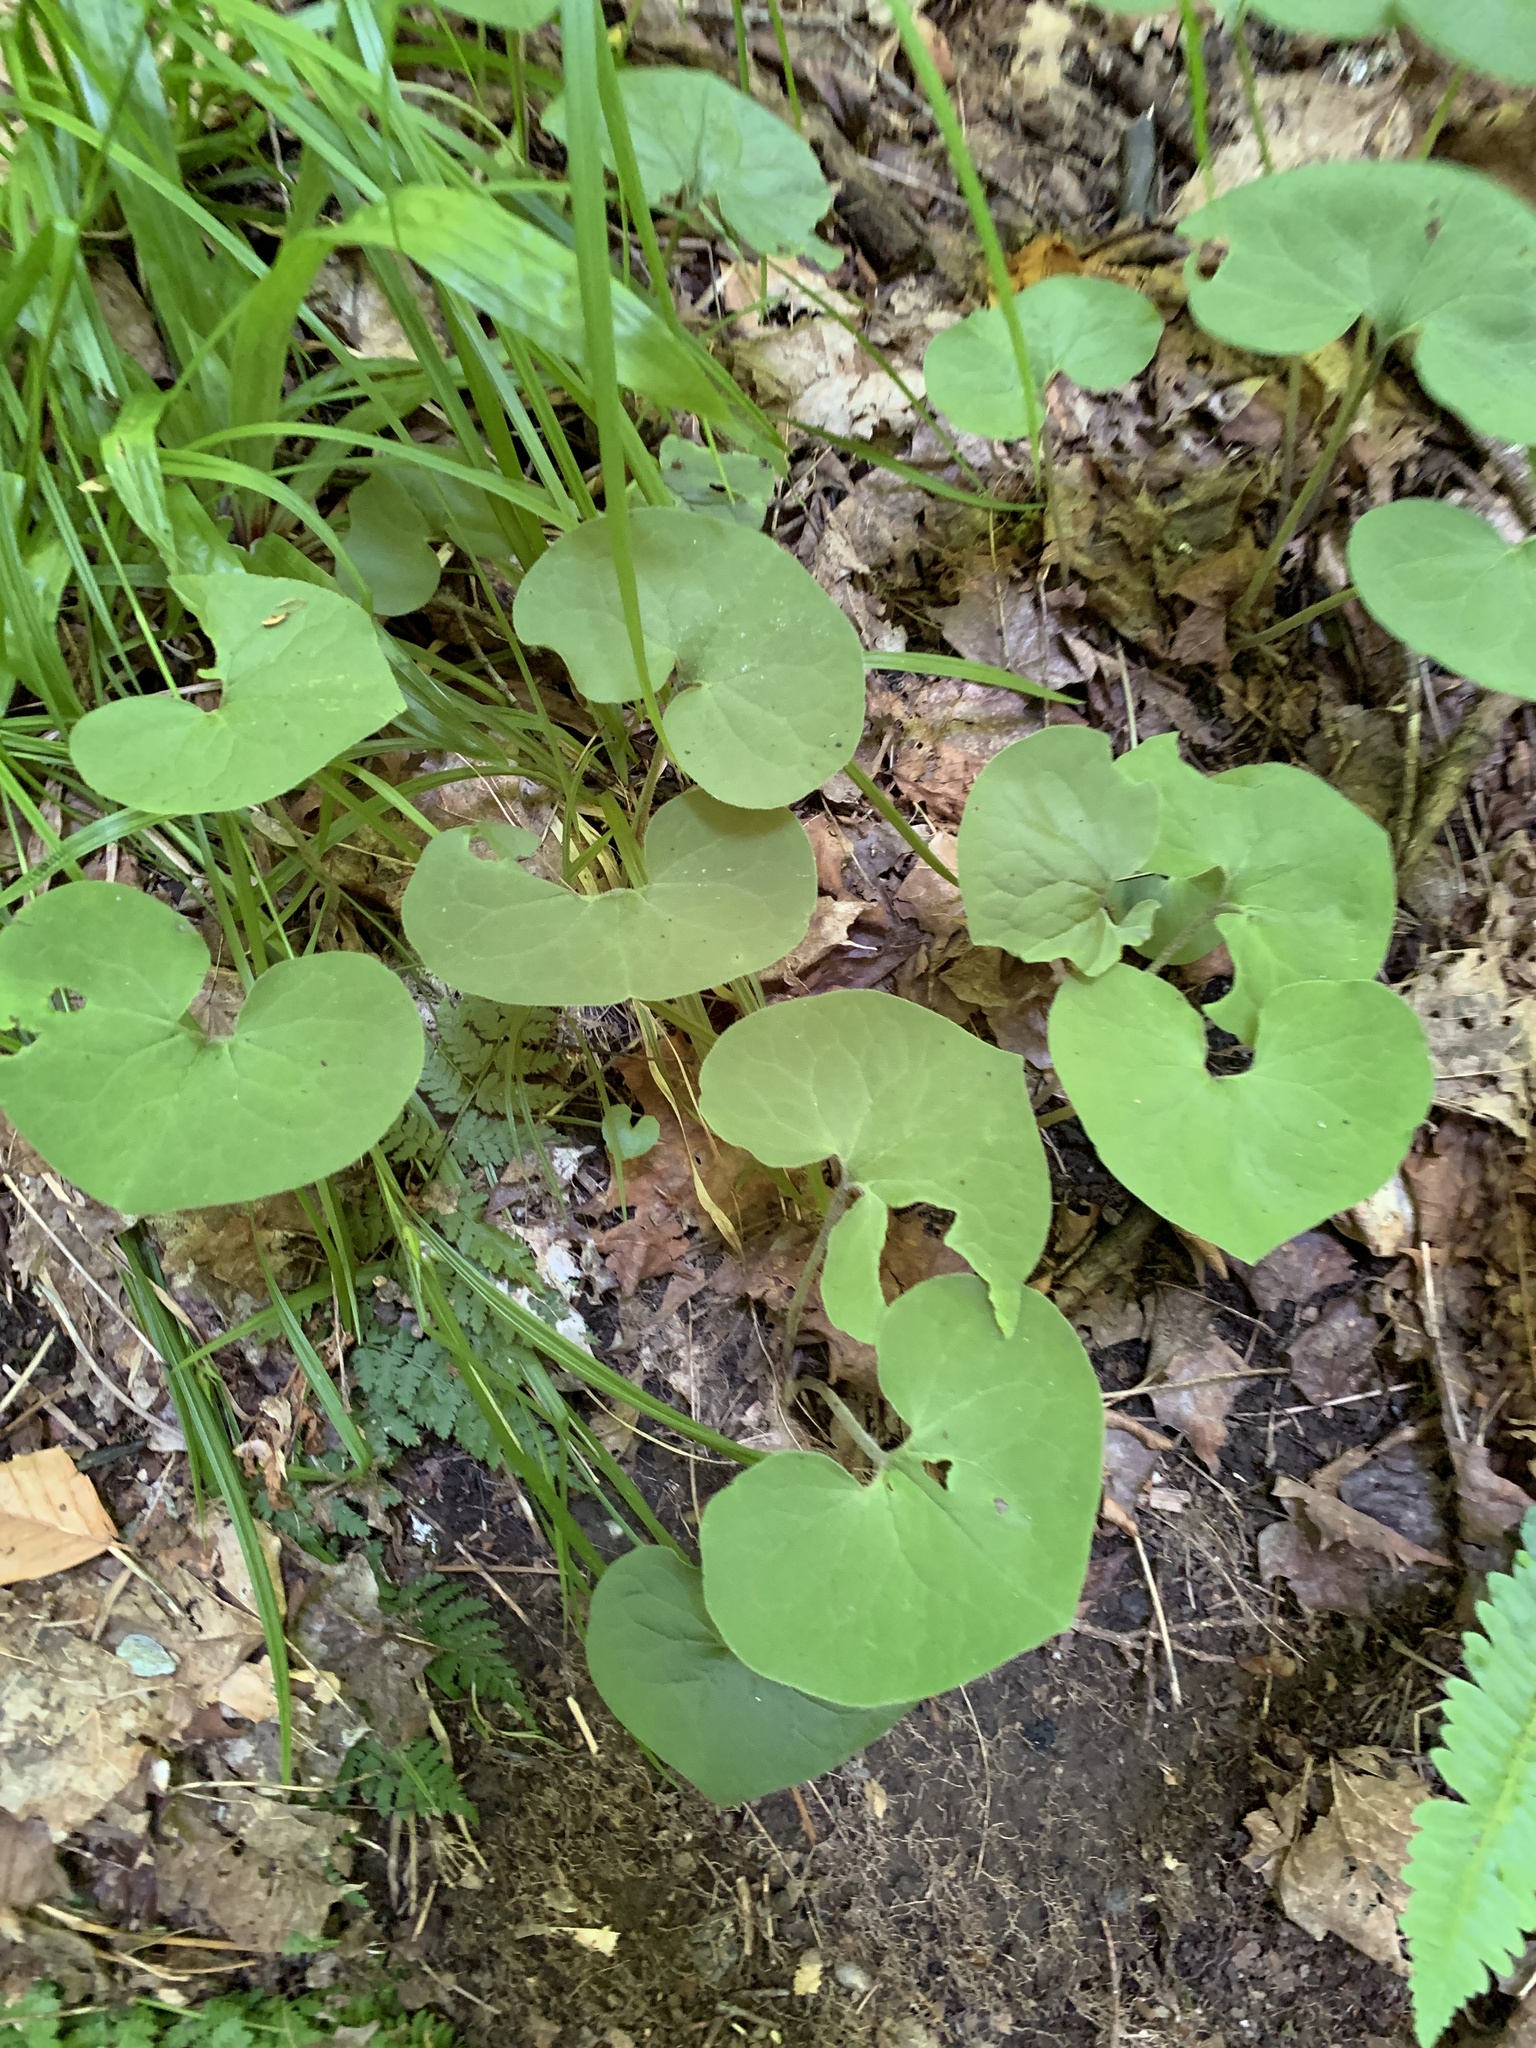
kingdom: Plantae
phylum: Tracheophyta
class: Magnoliopsida
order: Piperales
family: Aristolochiaceae
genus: Asarum
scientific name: Asarum canadense
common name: Wild ginger
